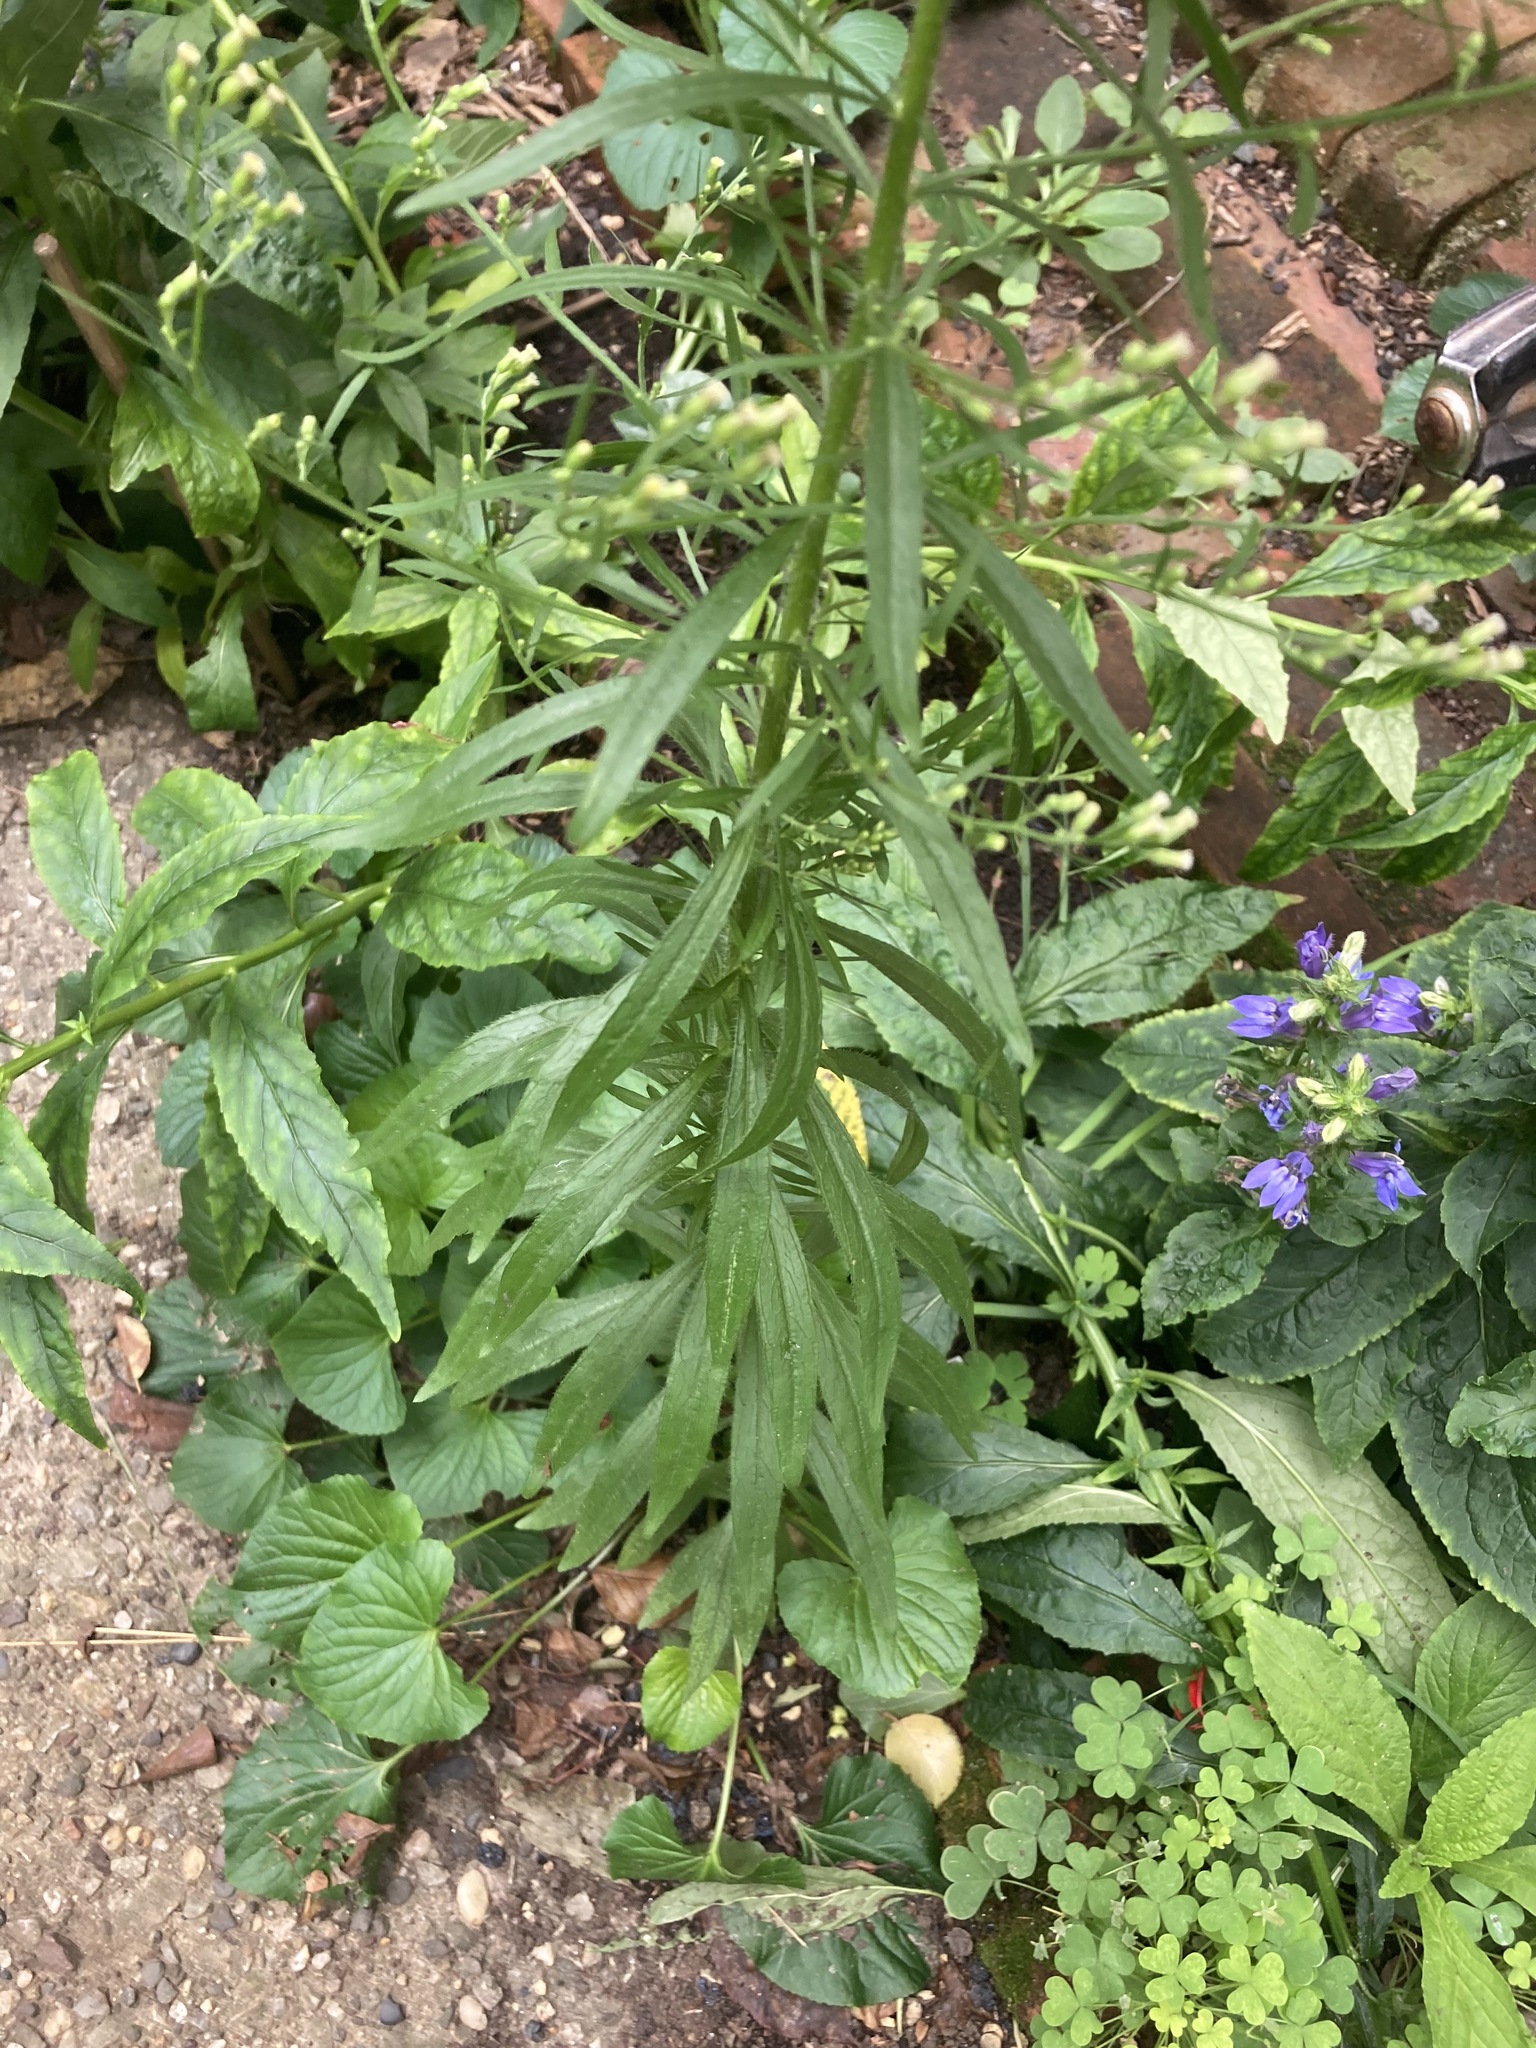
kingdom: Plantae
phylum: Tracheophyta
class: Magnoliopsida
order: Asterales
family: Asteraceae
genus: Erigeron
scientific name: Erigeron canadensis
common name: Canadian fleabane
